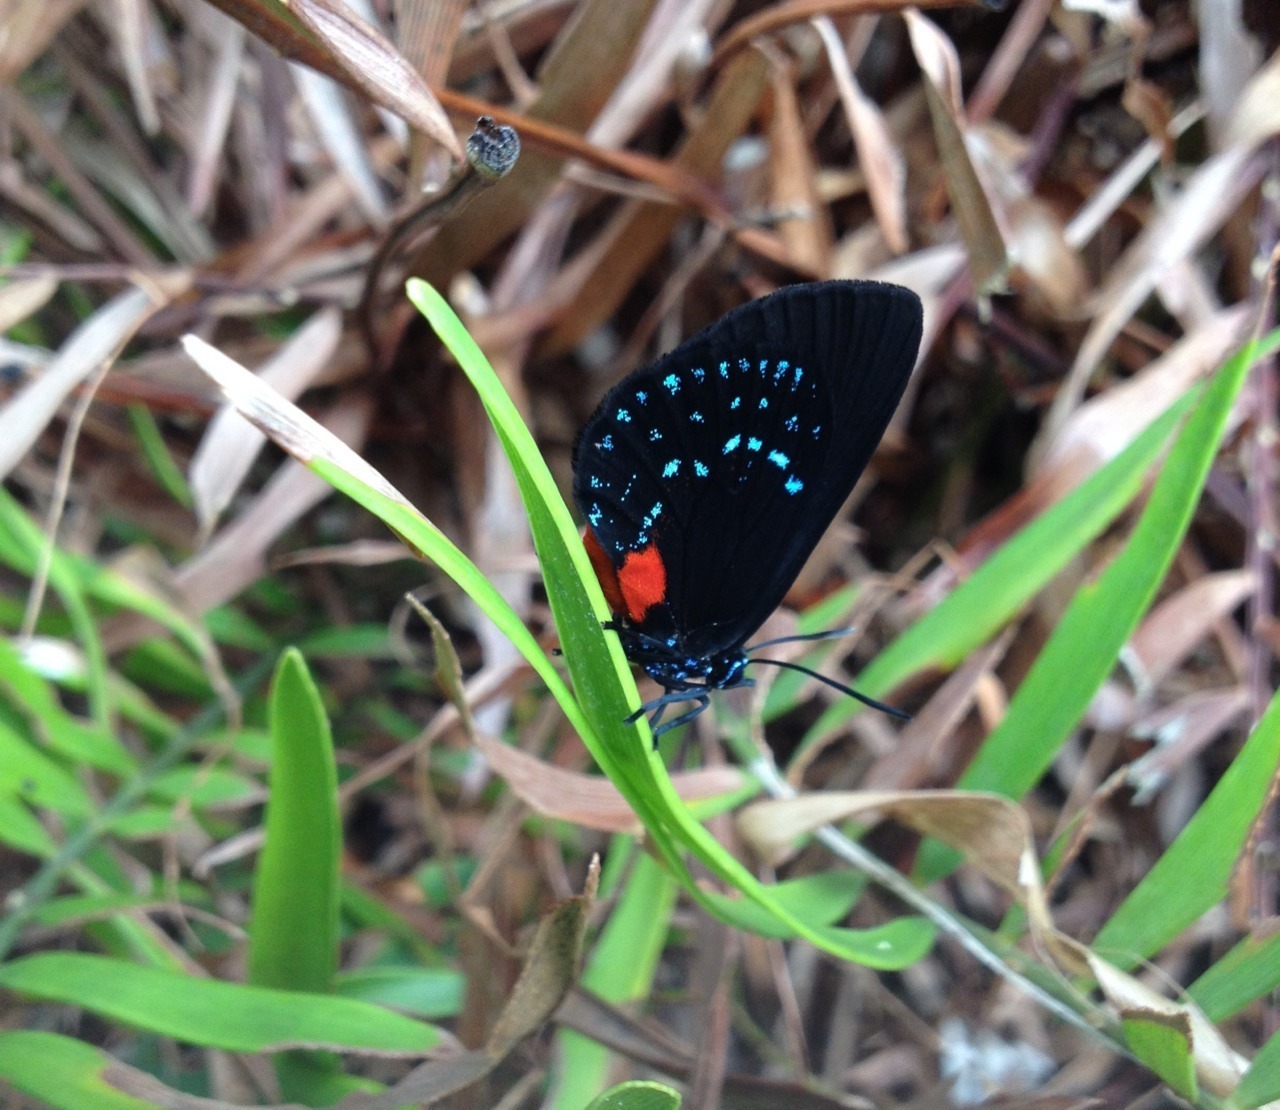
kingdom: Animalia
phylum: Arthropoda
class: Insecta
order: Lepidoptera
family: Lycaenidae
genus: Eumaeus
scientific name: Eumaeus atala
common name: Atala
